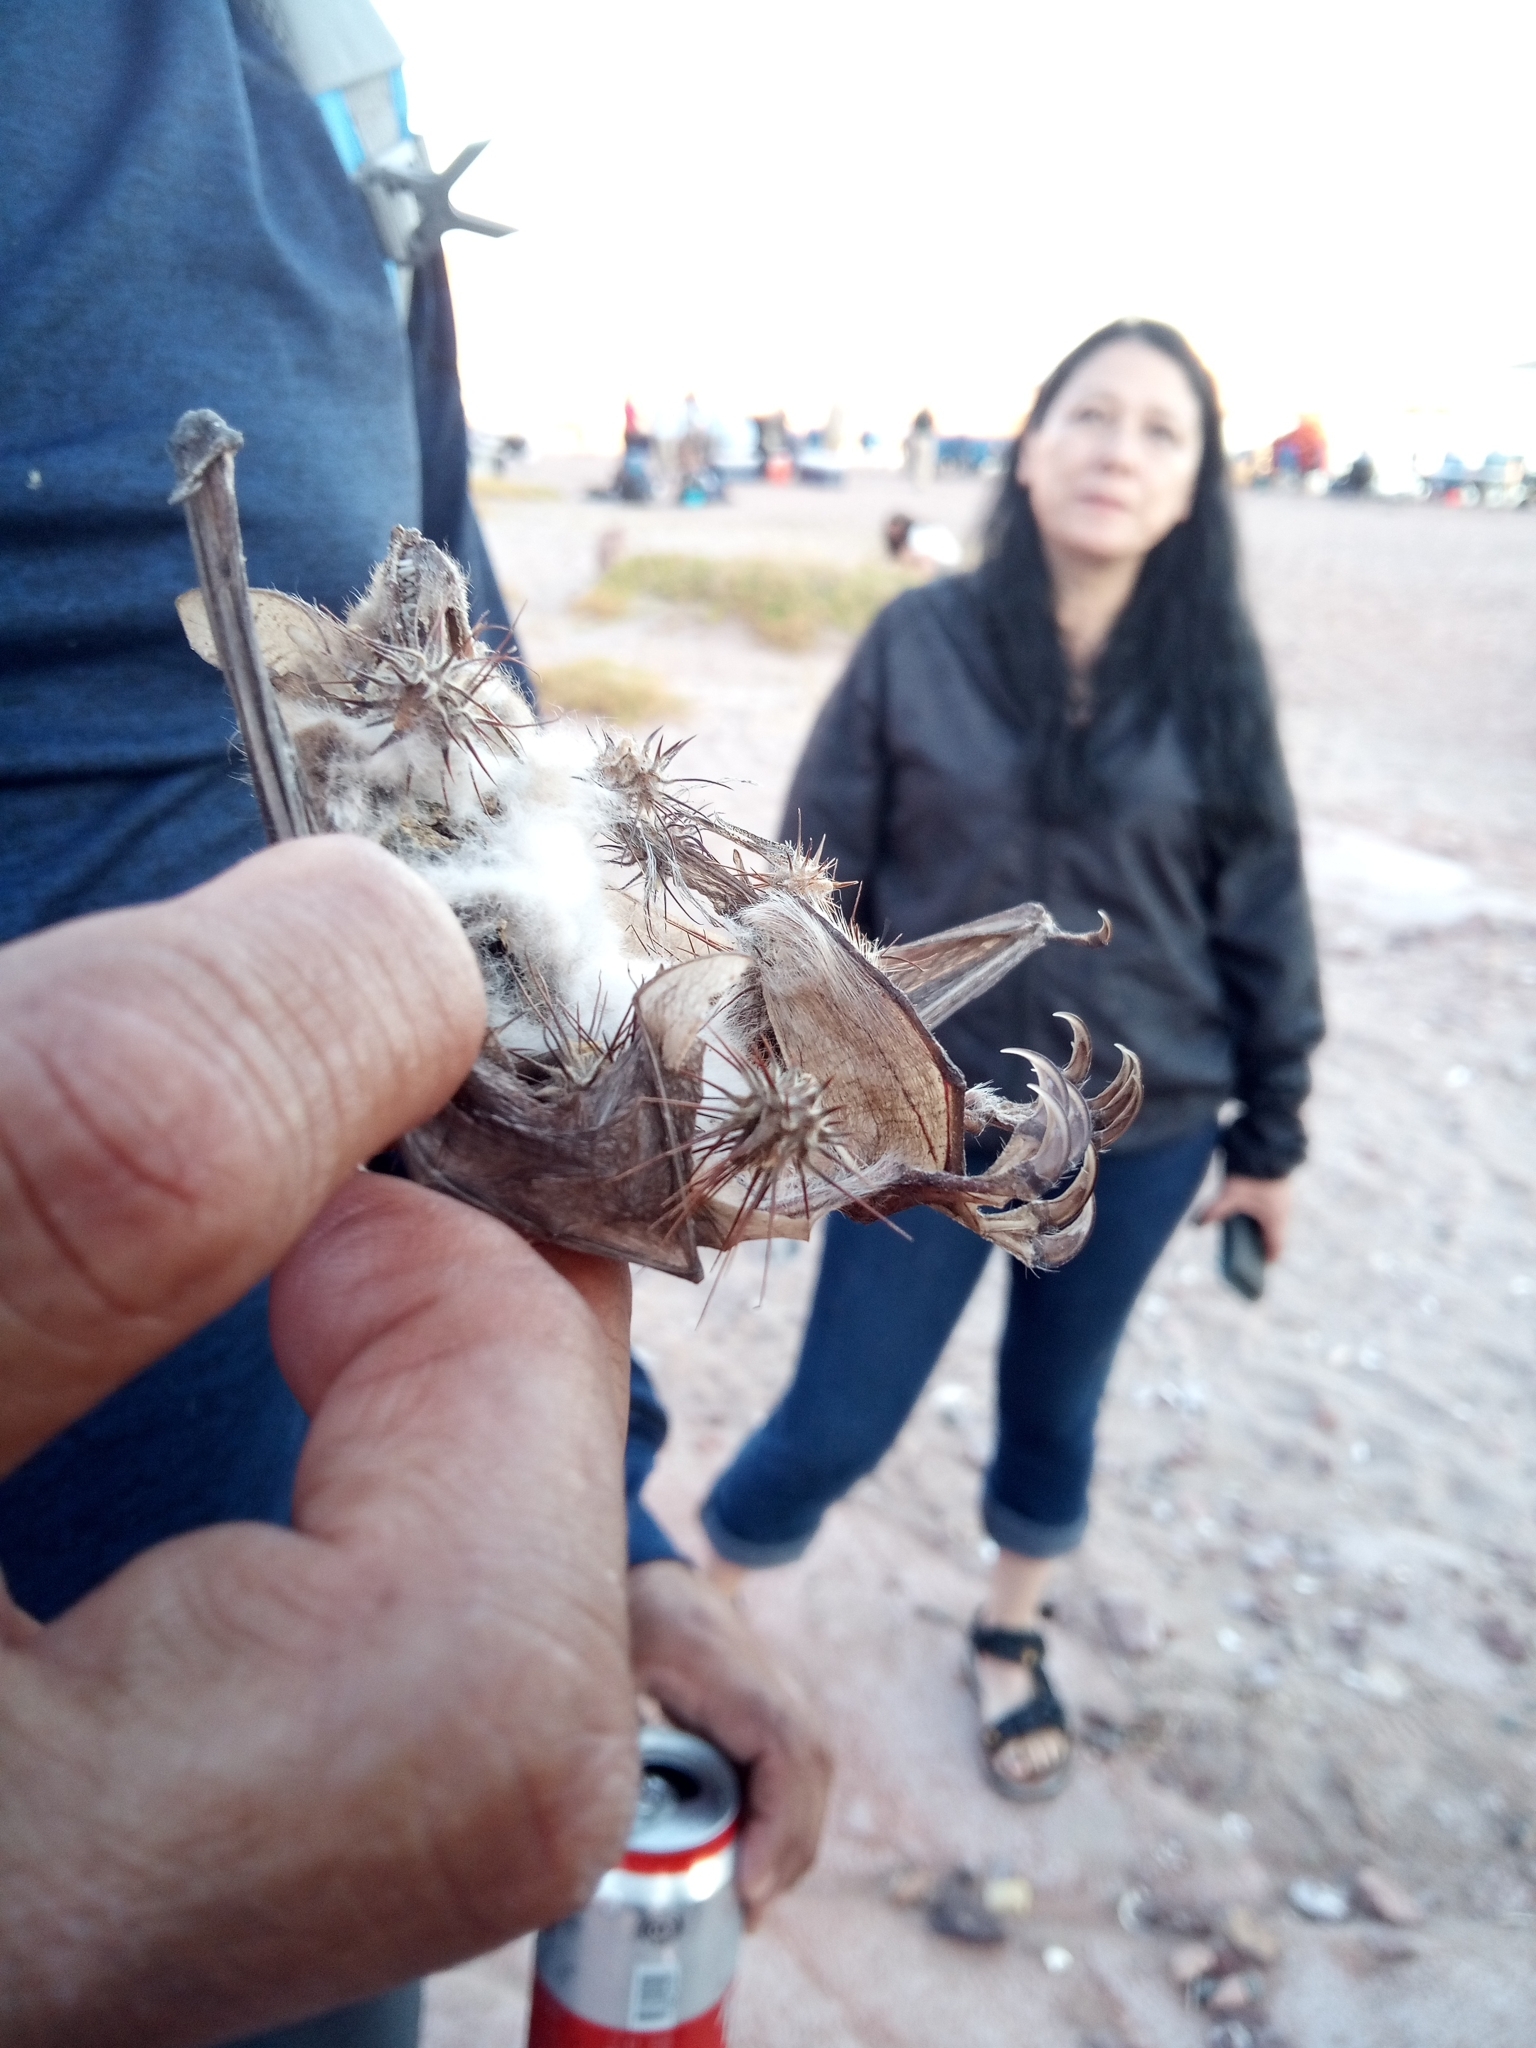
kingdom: Animalia
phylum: Chordata
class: Mammalia
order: Chiroptera
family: Vespertilionidae
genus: Myotis
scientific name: Myotis vivesi
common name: Fish-eating myotis
